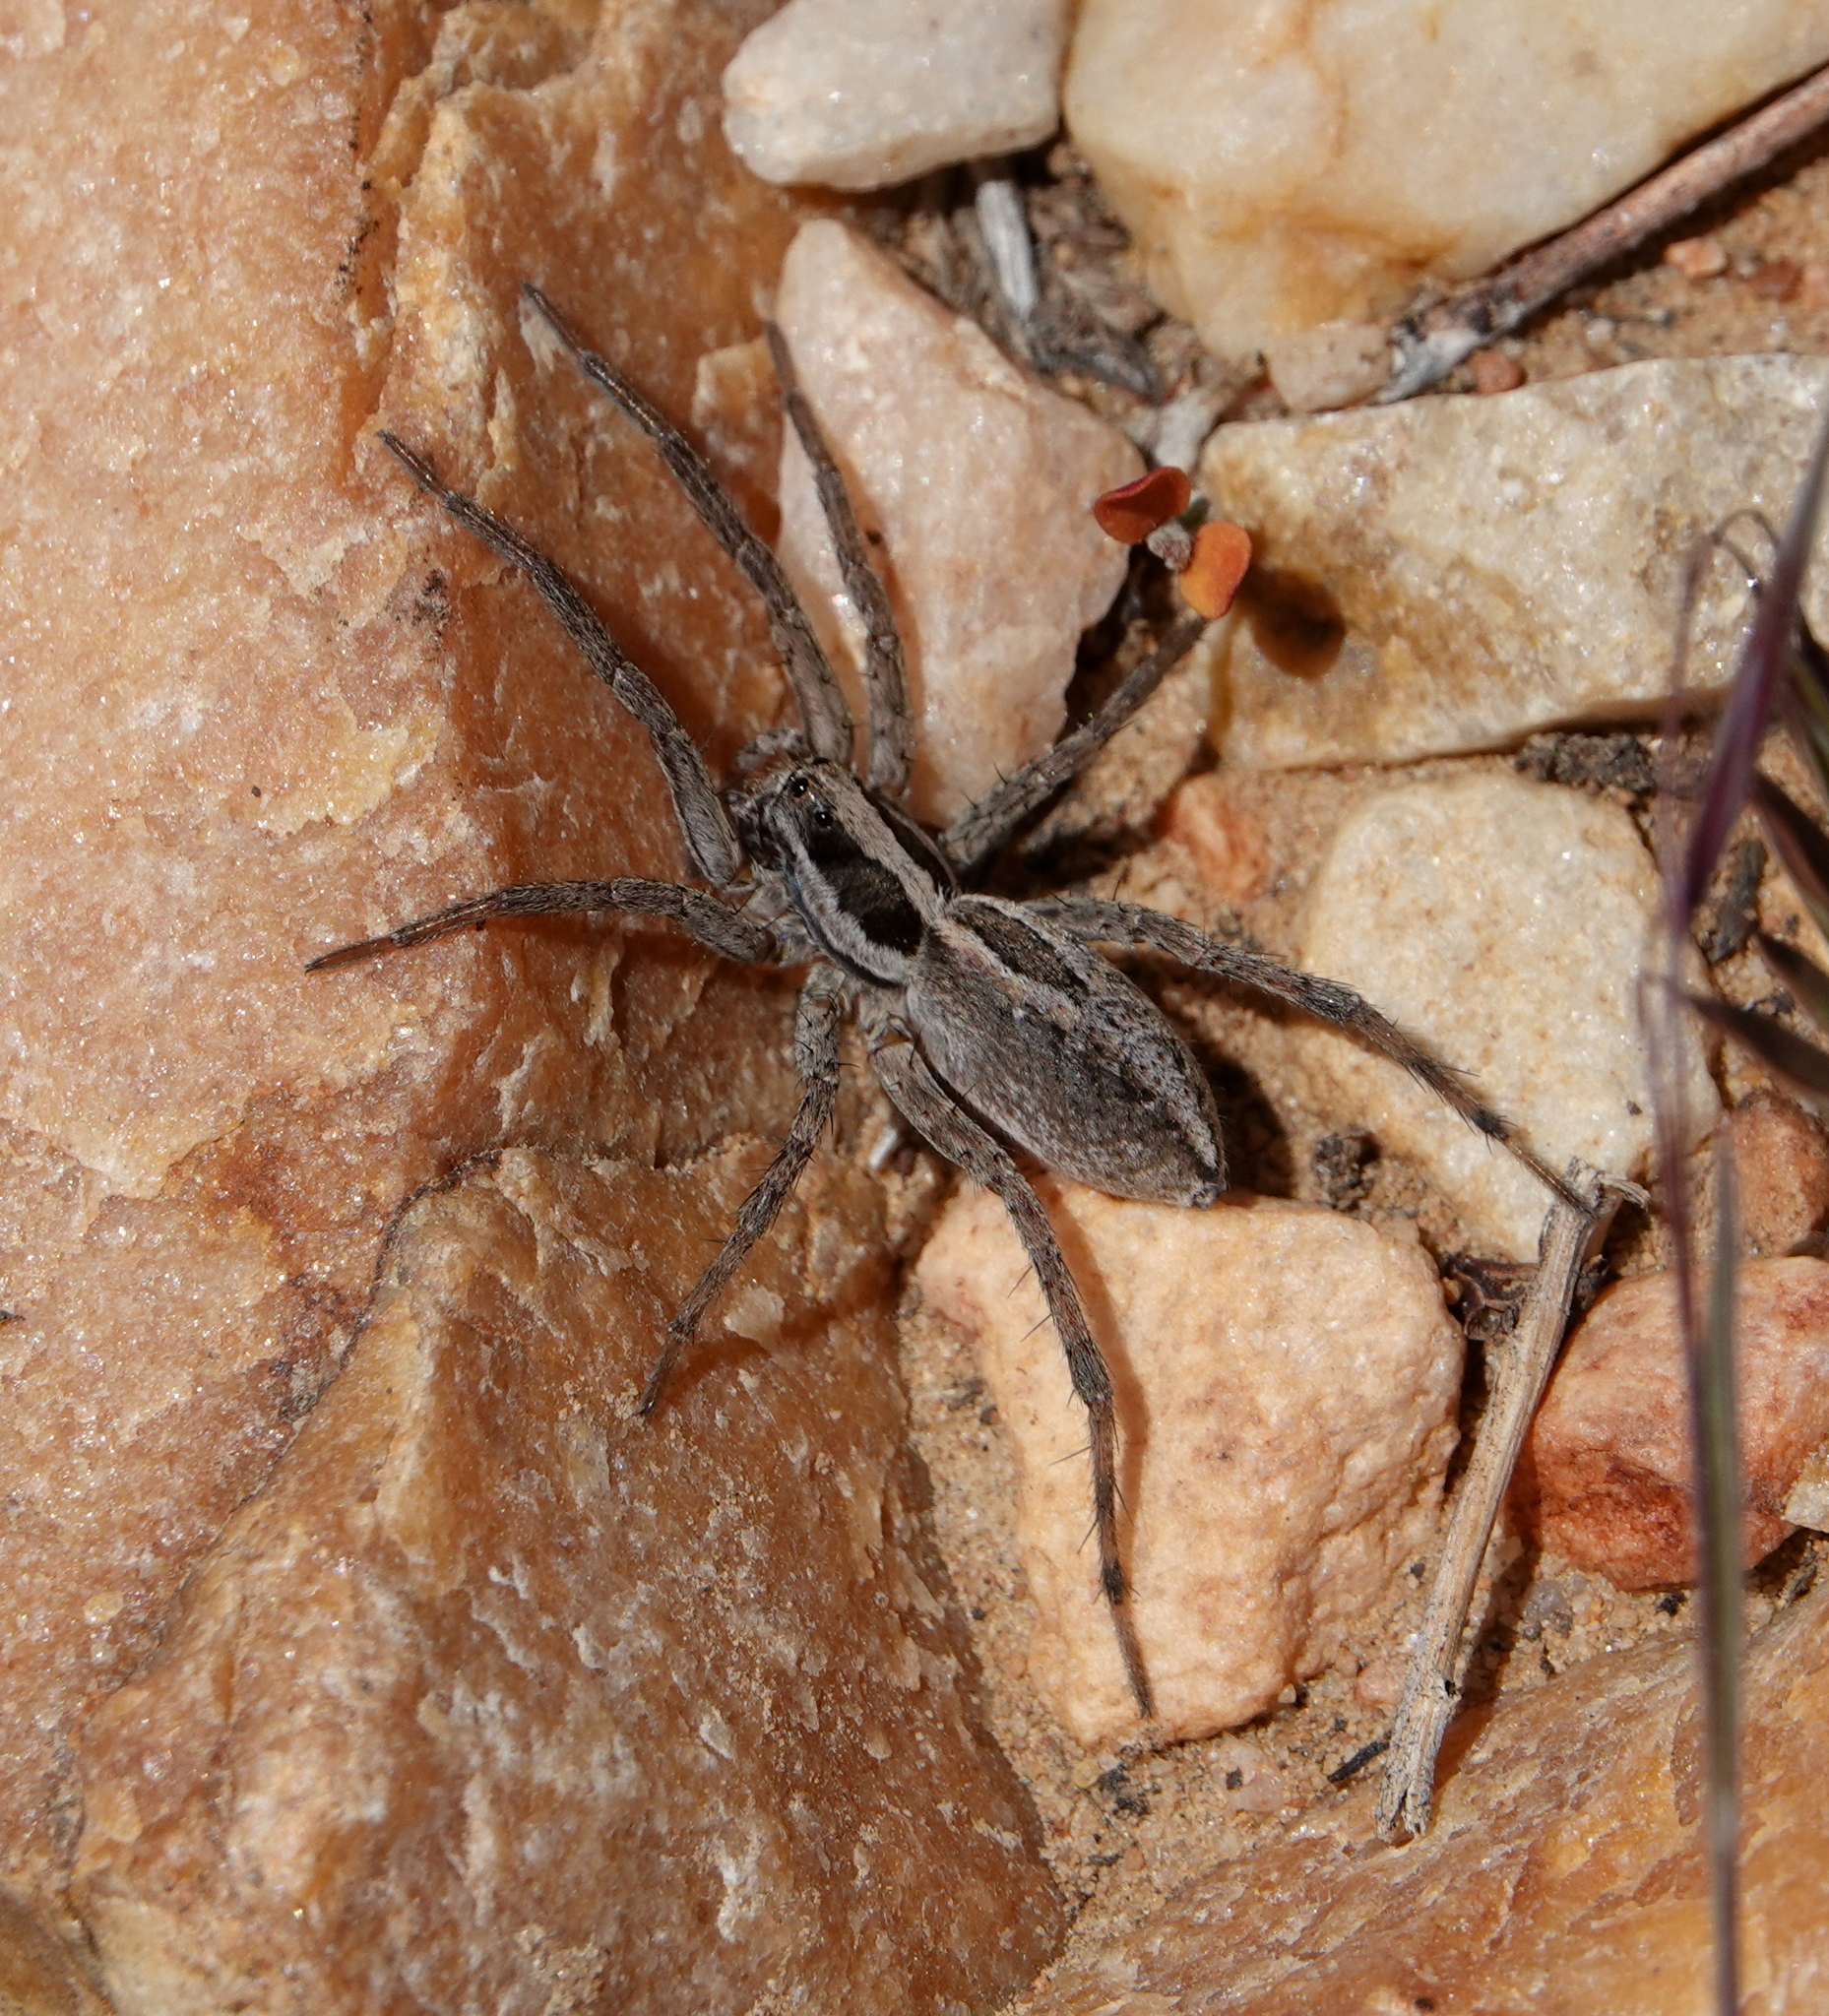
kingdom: Animalia
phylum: Arthropoda
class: Arachnida
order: Araneae
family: Lycosidae
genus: Schizocosa
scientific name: Schizocosa mccooki
